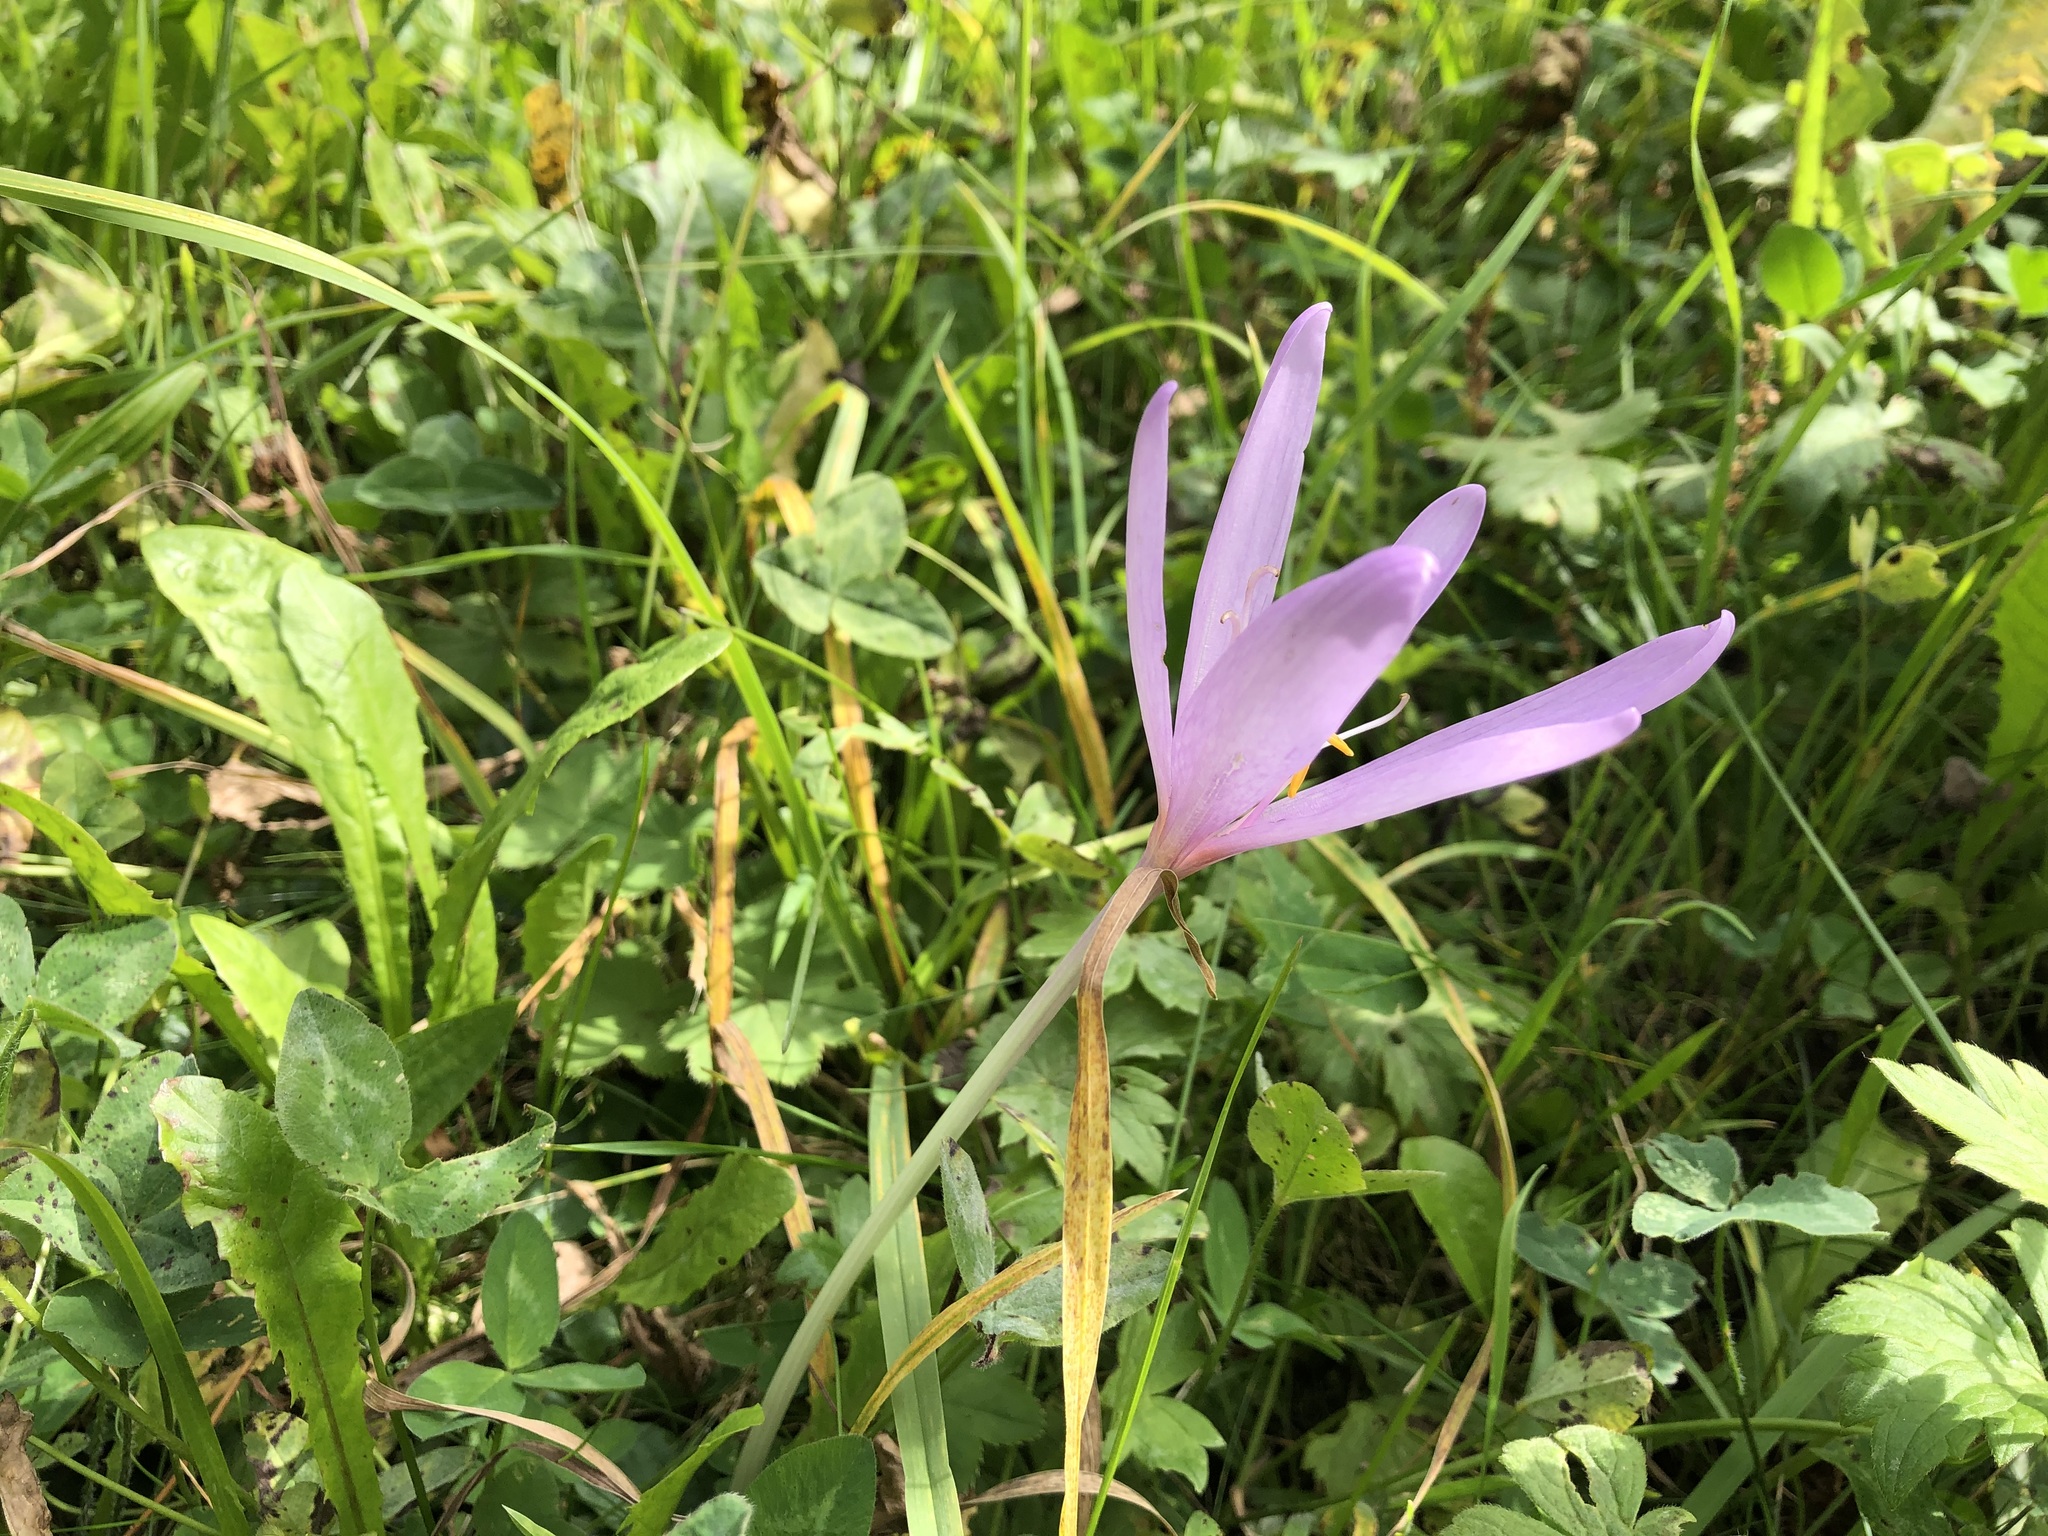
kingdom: Plantae
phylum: Tracheophyta
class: Liliopsida
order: Liliales
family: Colchicaceae
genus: Colchicum
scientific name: Colchicum autumnale
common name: Autumn crocus
